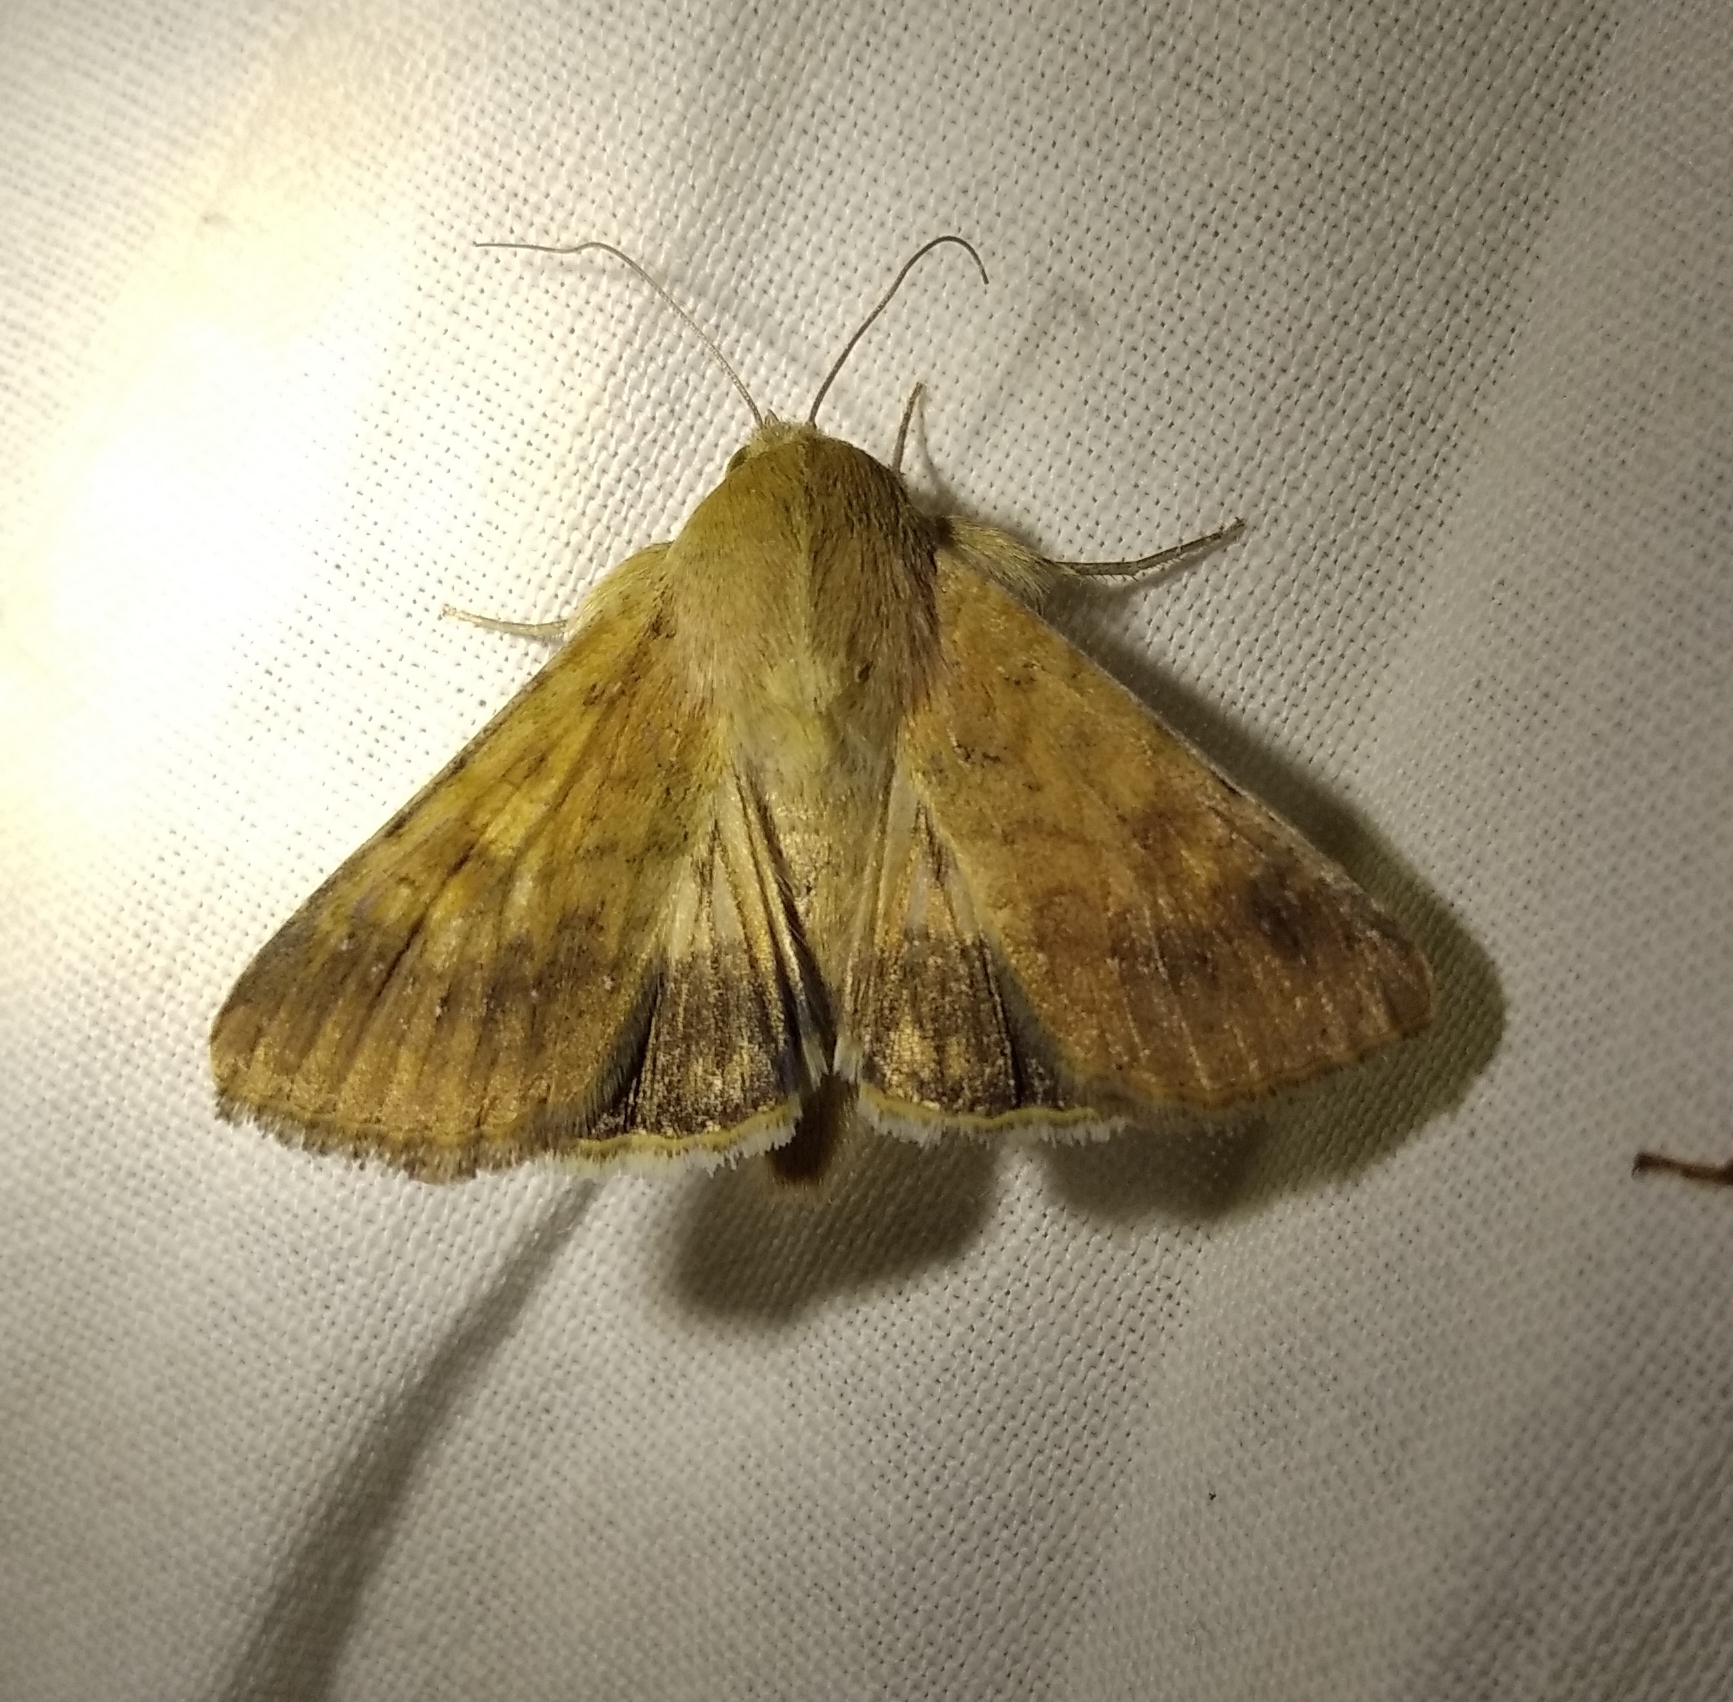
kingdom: Animalia
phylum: Arthropoda
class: Insecta
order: Lepidoptera
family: Noctuidae
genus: Helicoverpa
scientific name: Helicoverpa armigera
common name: Cotton bollworm
